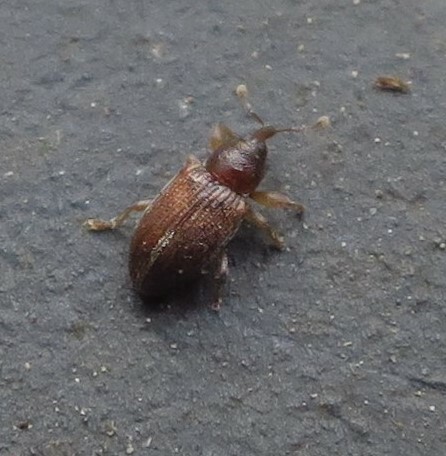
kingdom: Animalia
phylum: Arthropoda
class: Insecta
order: Coleoptera
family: Curculionidae
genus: Aneuma
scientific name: Aneuma
